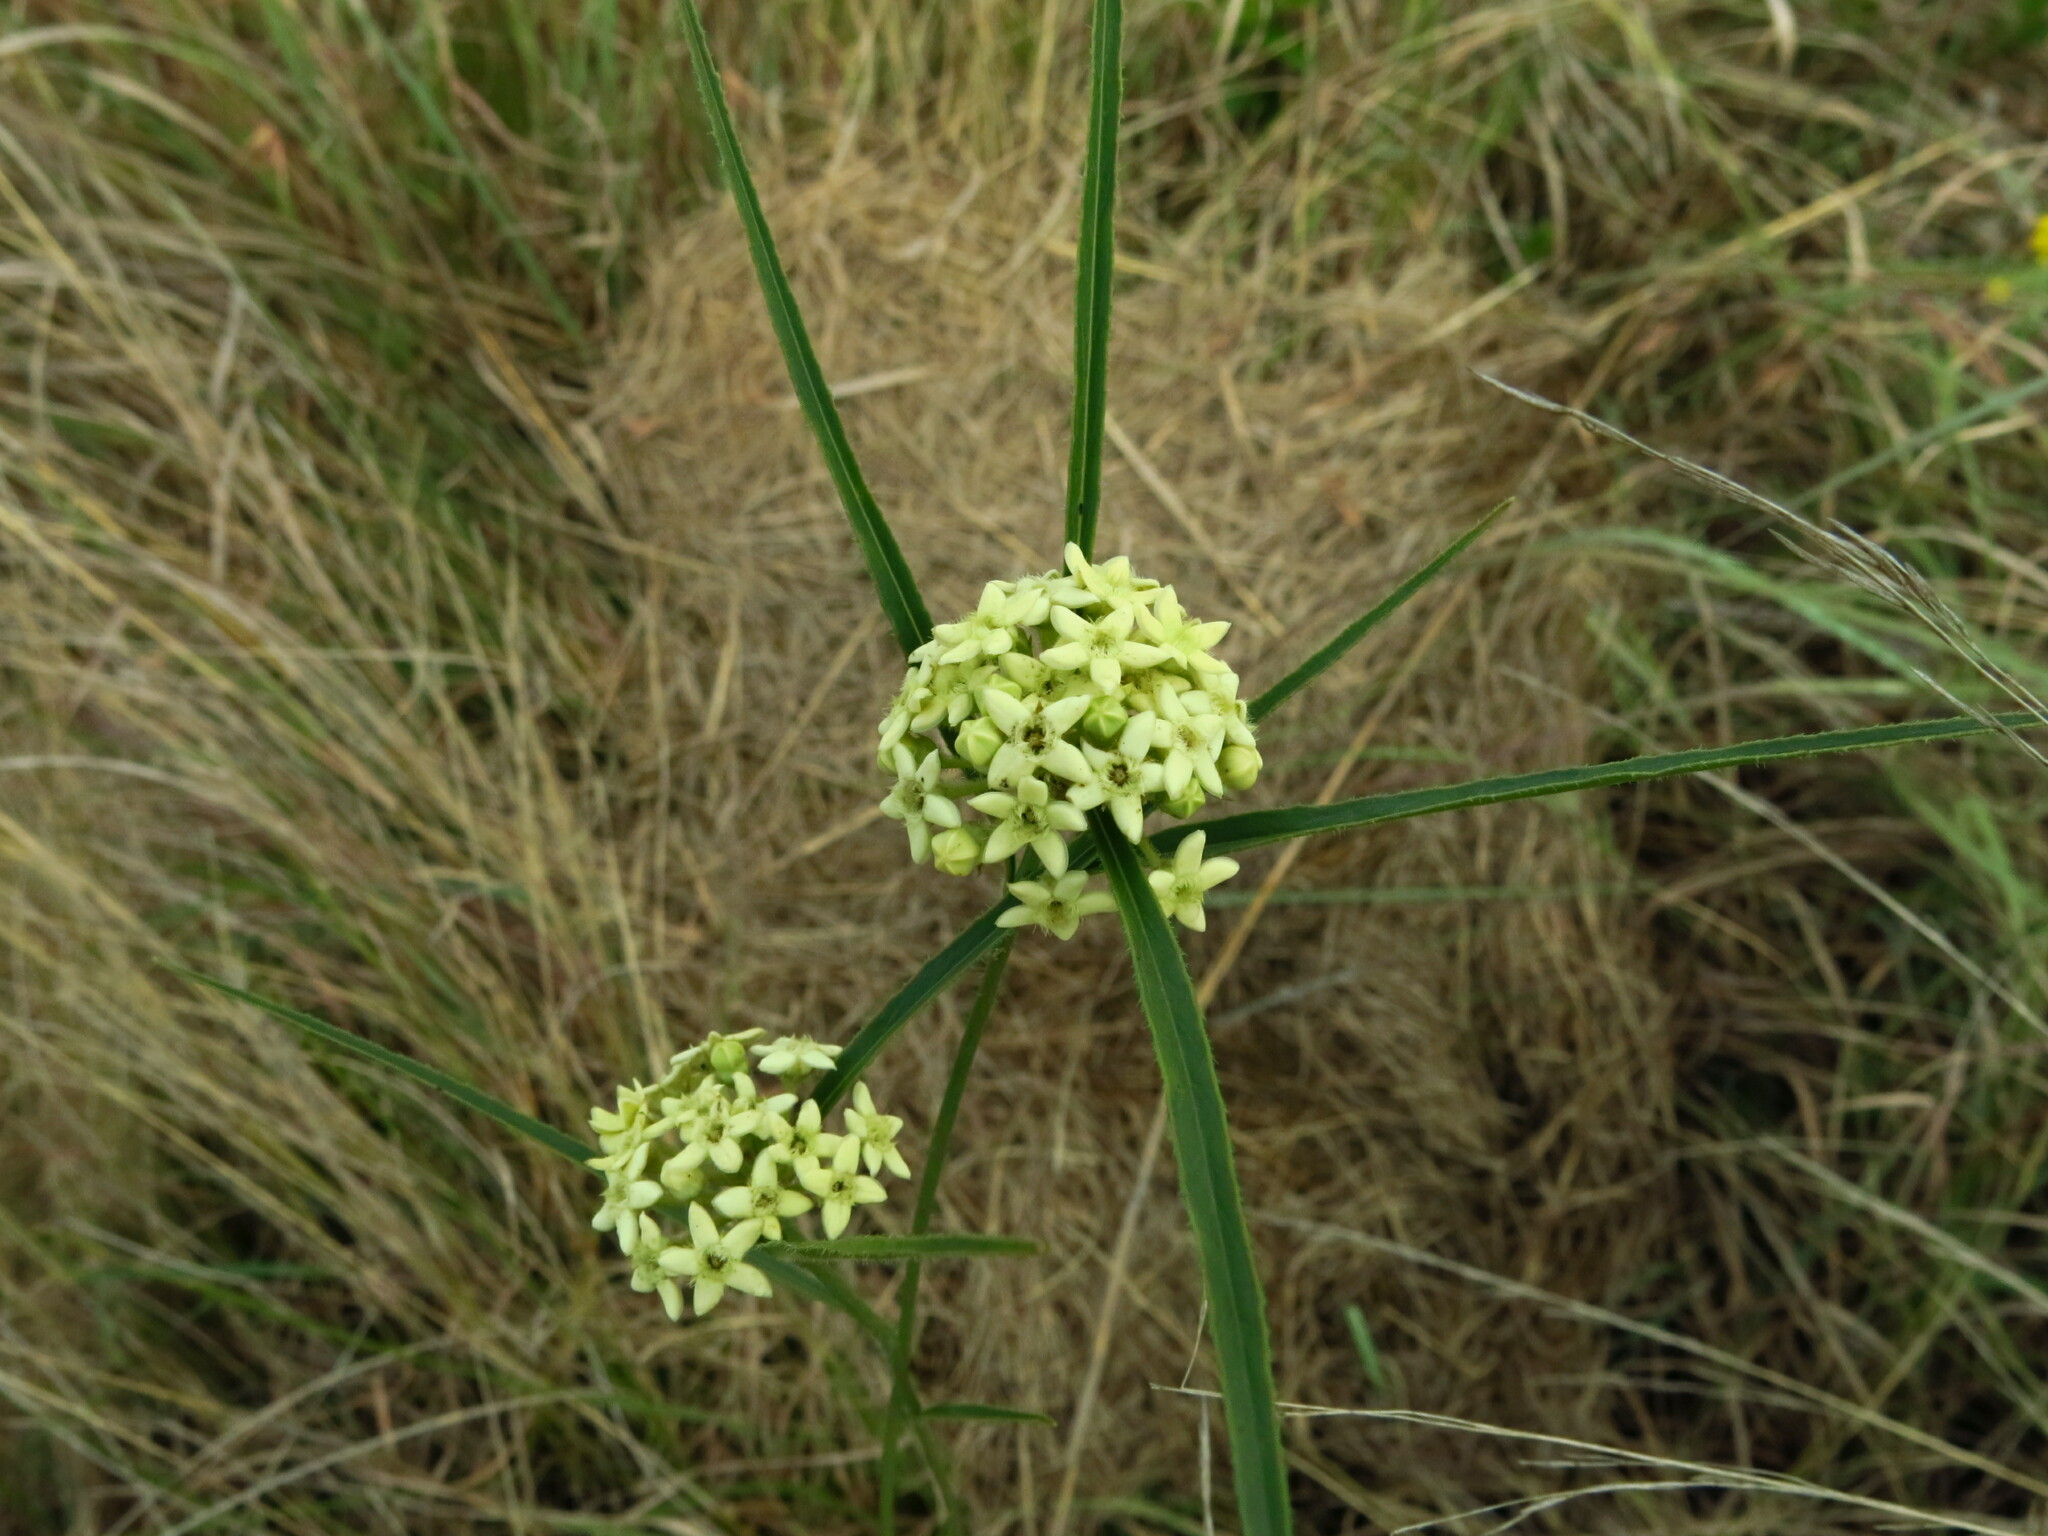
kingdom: Plantae
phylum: Tracheophyta
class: Magnoliopsida
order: Gentianales
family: Apocynaceae
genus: Sisyranthus
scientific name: Sisyranthus trichostomus
